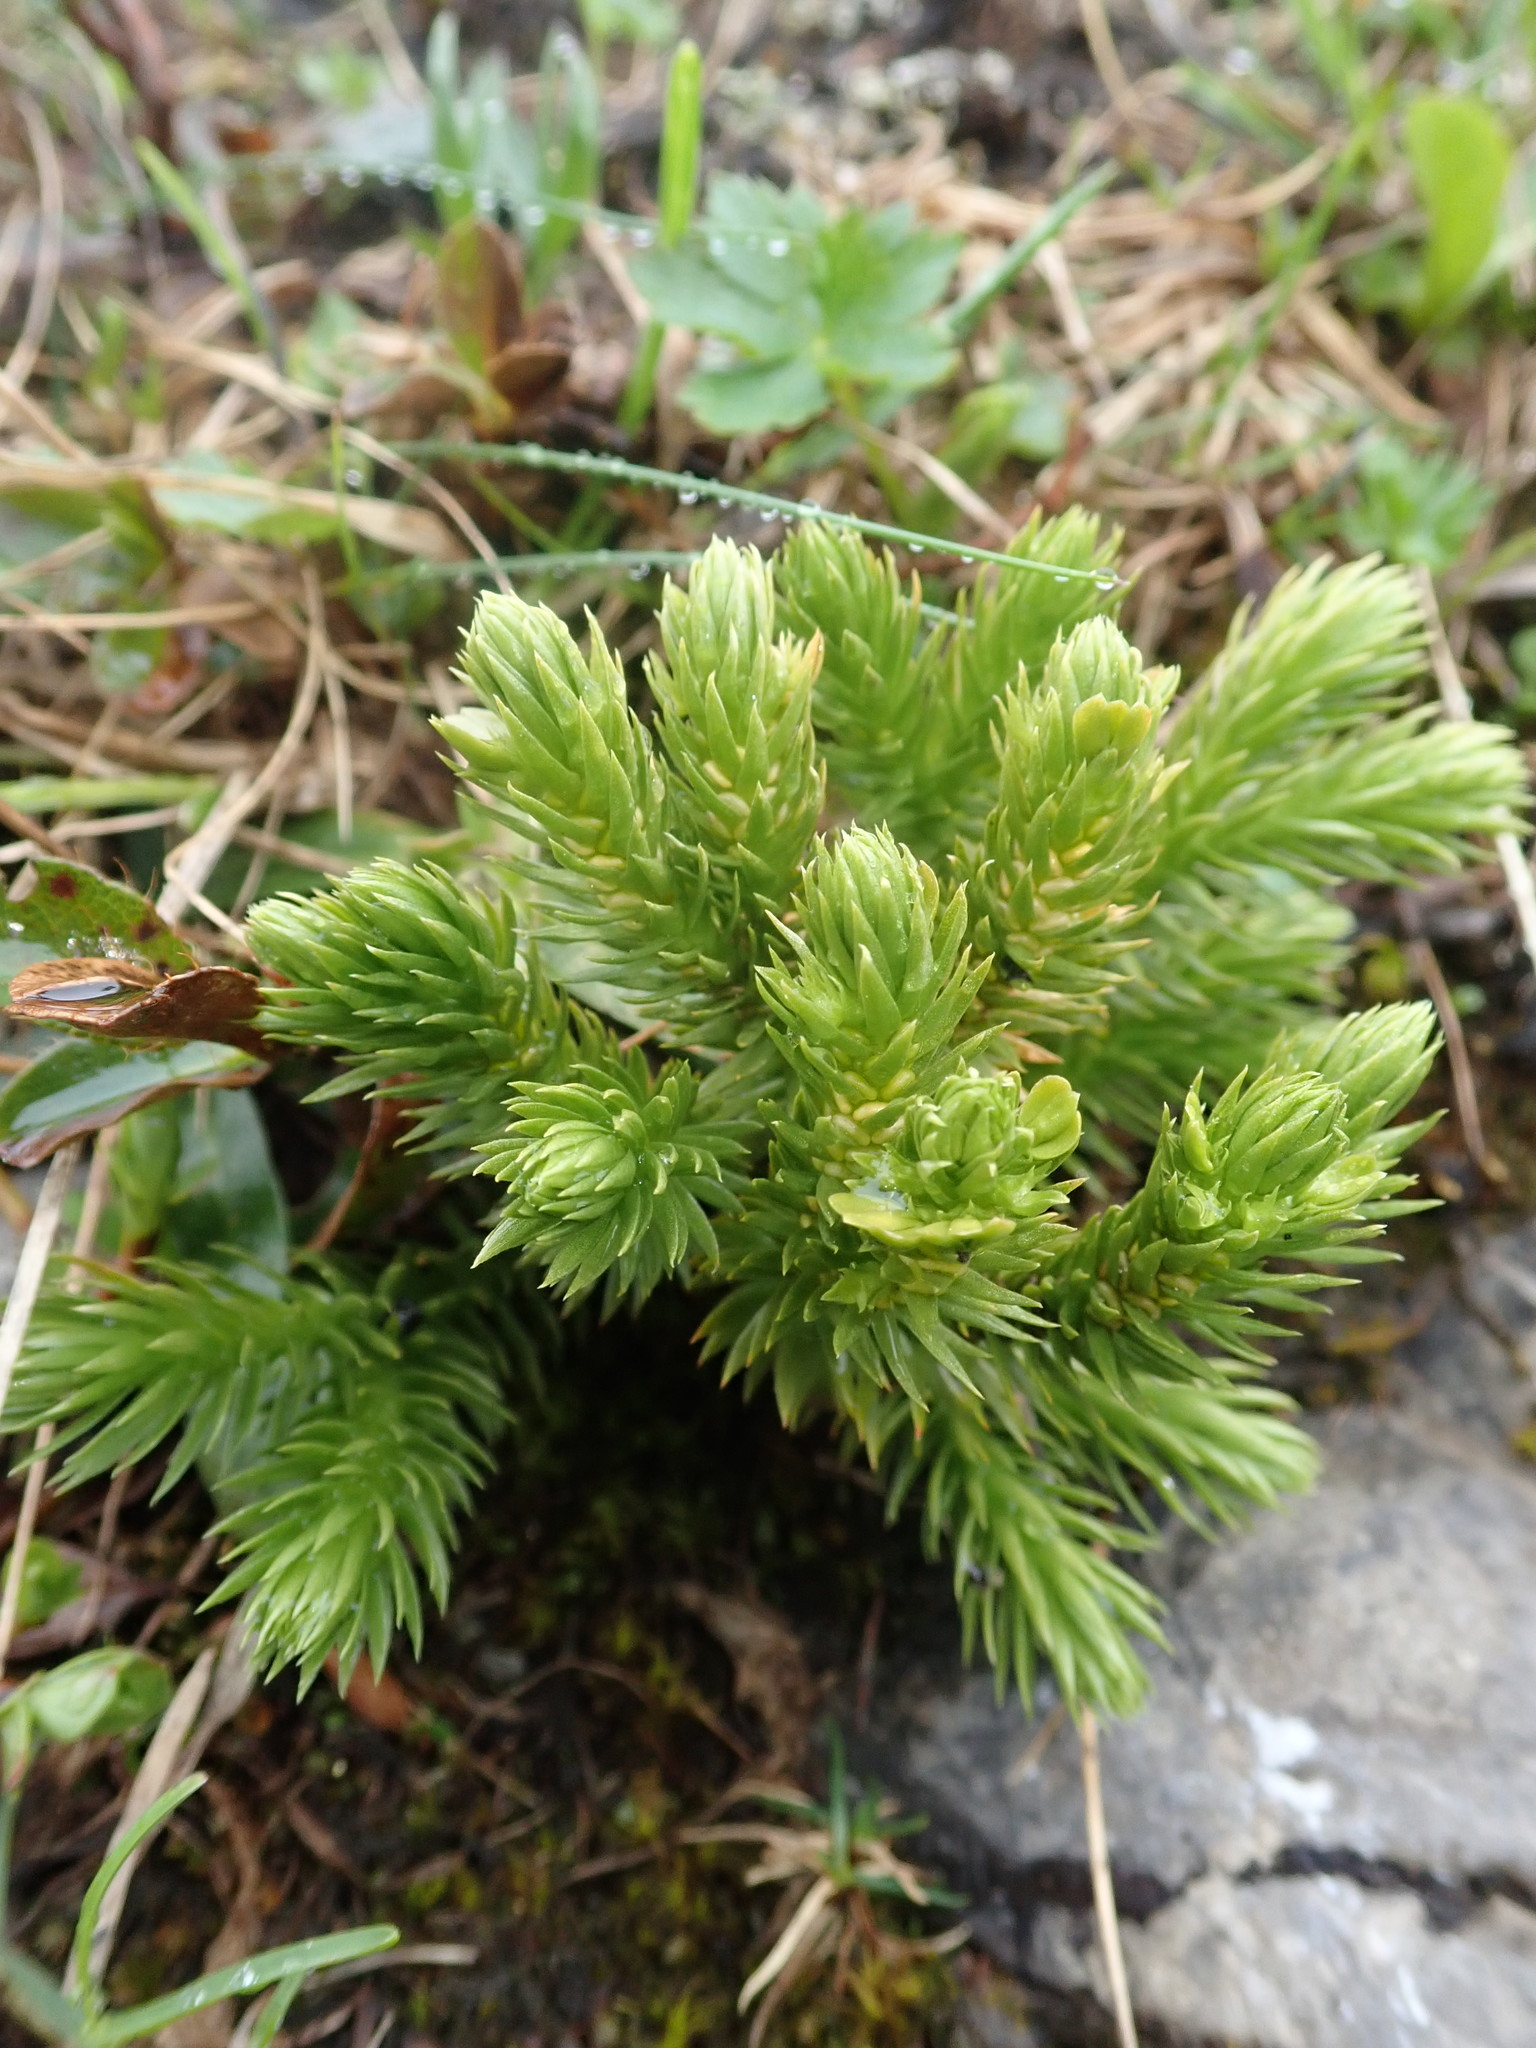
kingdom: Plantae
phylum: Tracheophyta
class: Lycopodiopsida
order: Lycopodiales
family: Lycopodiaceae
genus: Huperzia
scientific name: Huperzia selago
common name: Northern firmoss
